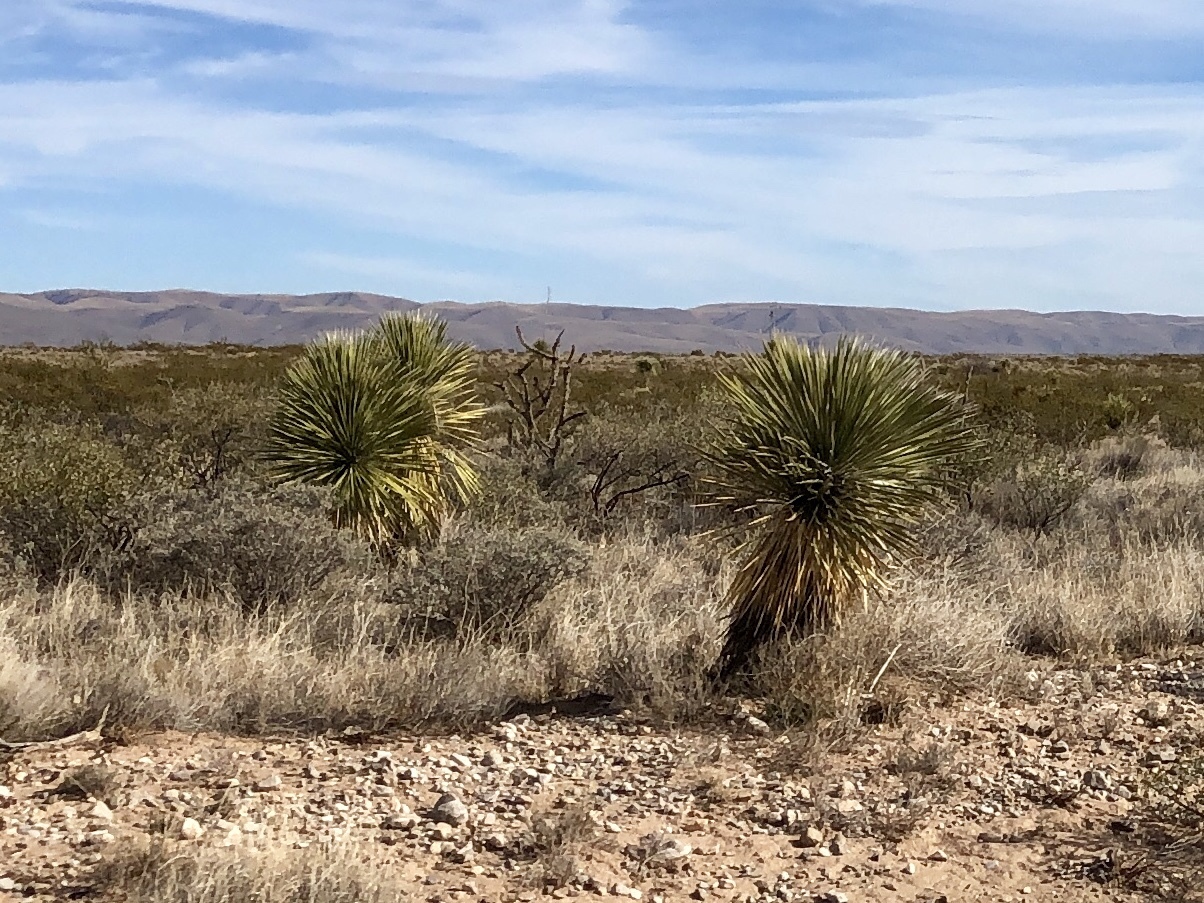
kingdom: Plantae
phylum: Tracheophyta
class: Liliopsida
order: Asparagales
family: Asparagaceae
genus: Yucca
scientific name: Yucca elata
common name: Palmella
